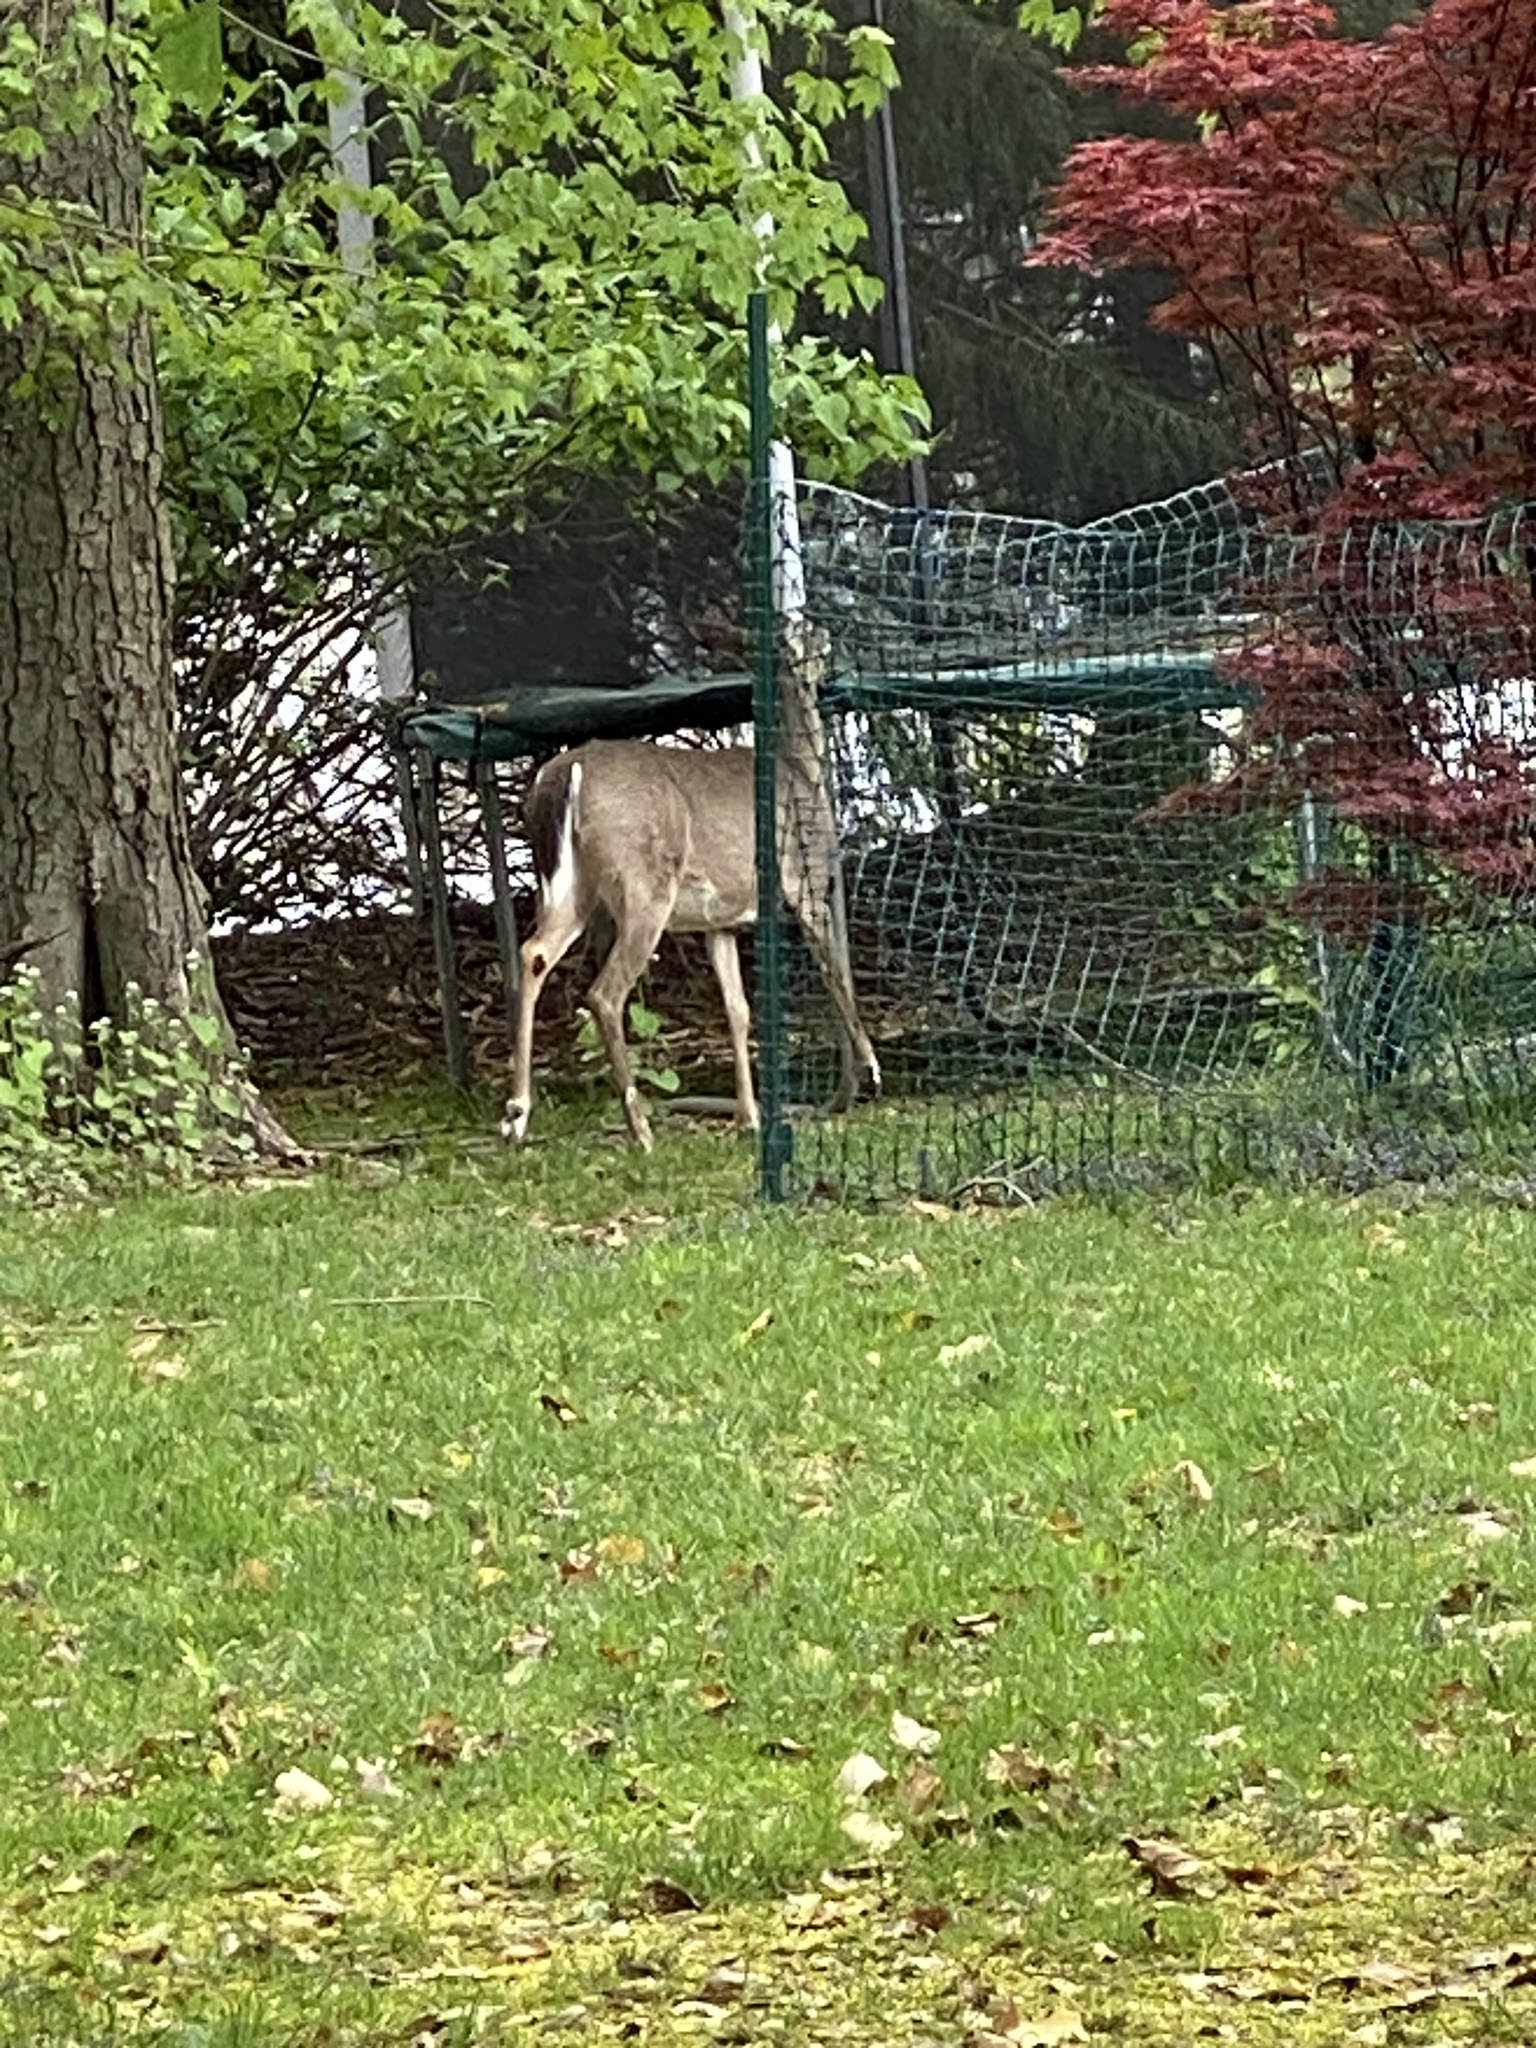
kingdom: Animalia
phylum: Chordata
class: Mammalia
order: Artiodactyla
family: Cervidae
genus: Odocoileus
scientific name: Odocoileus virginianus
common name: White-tailed deer
